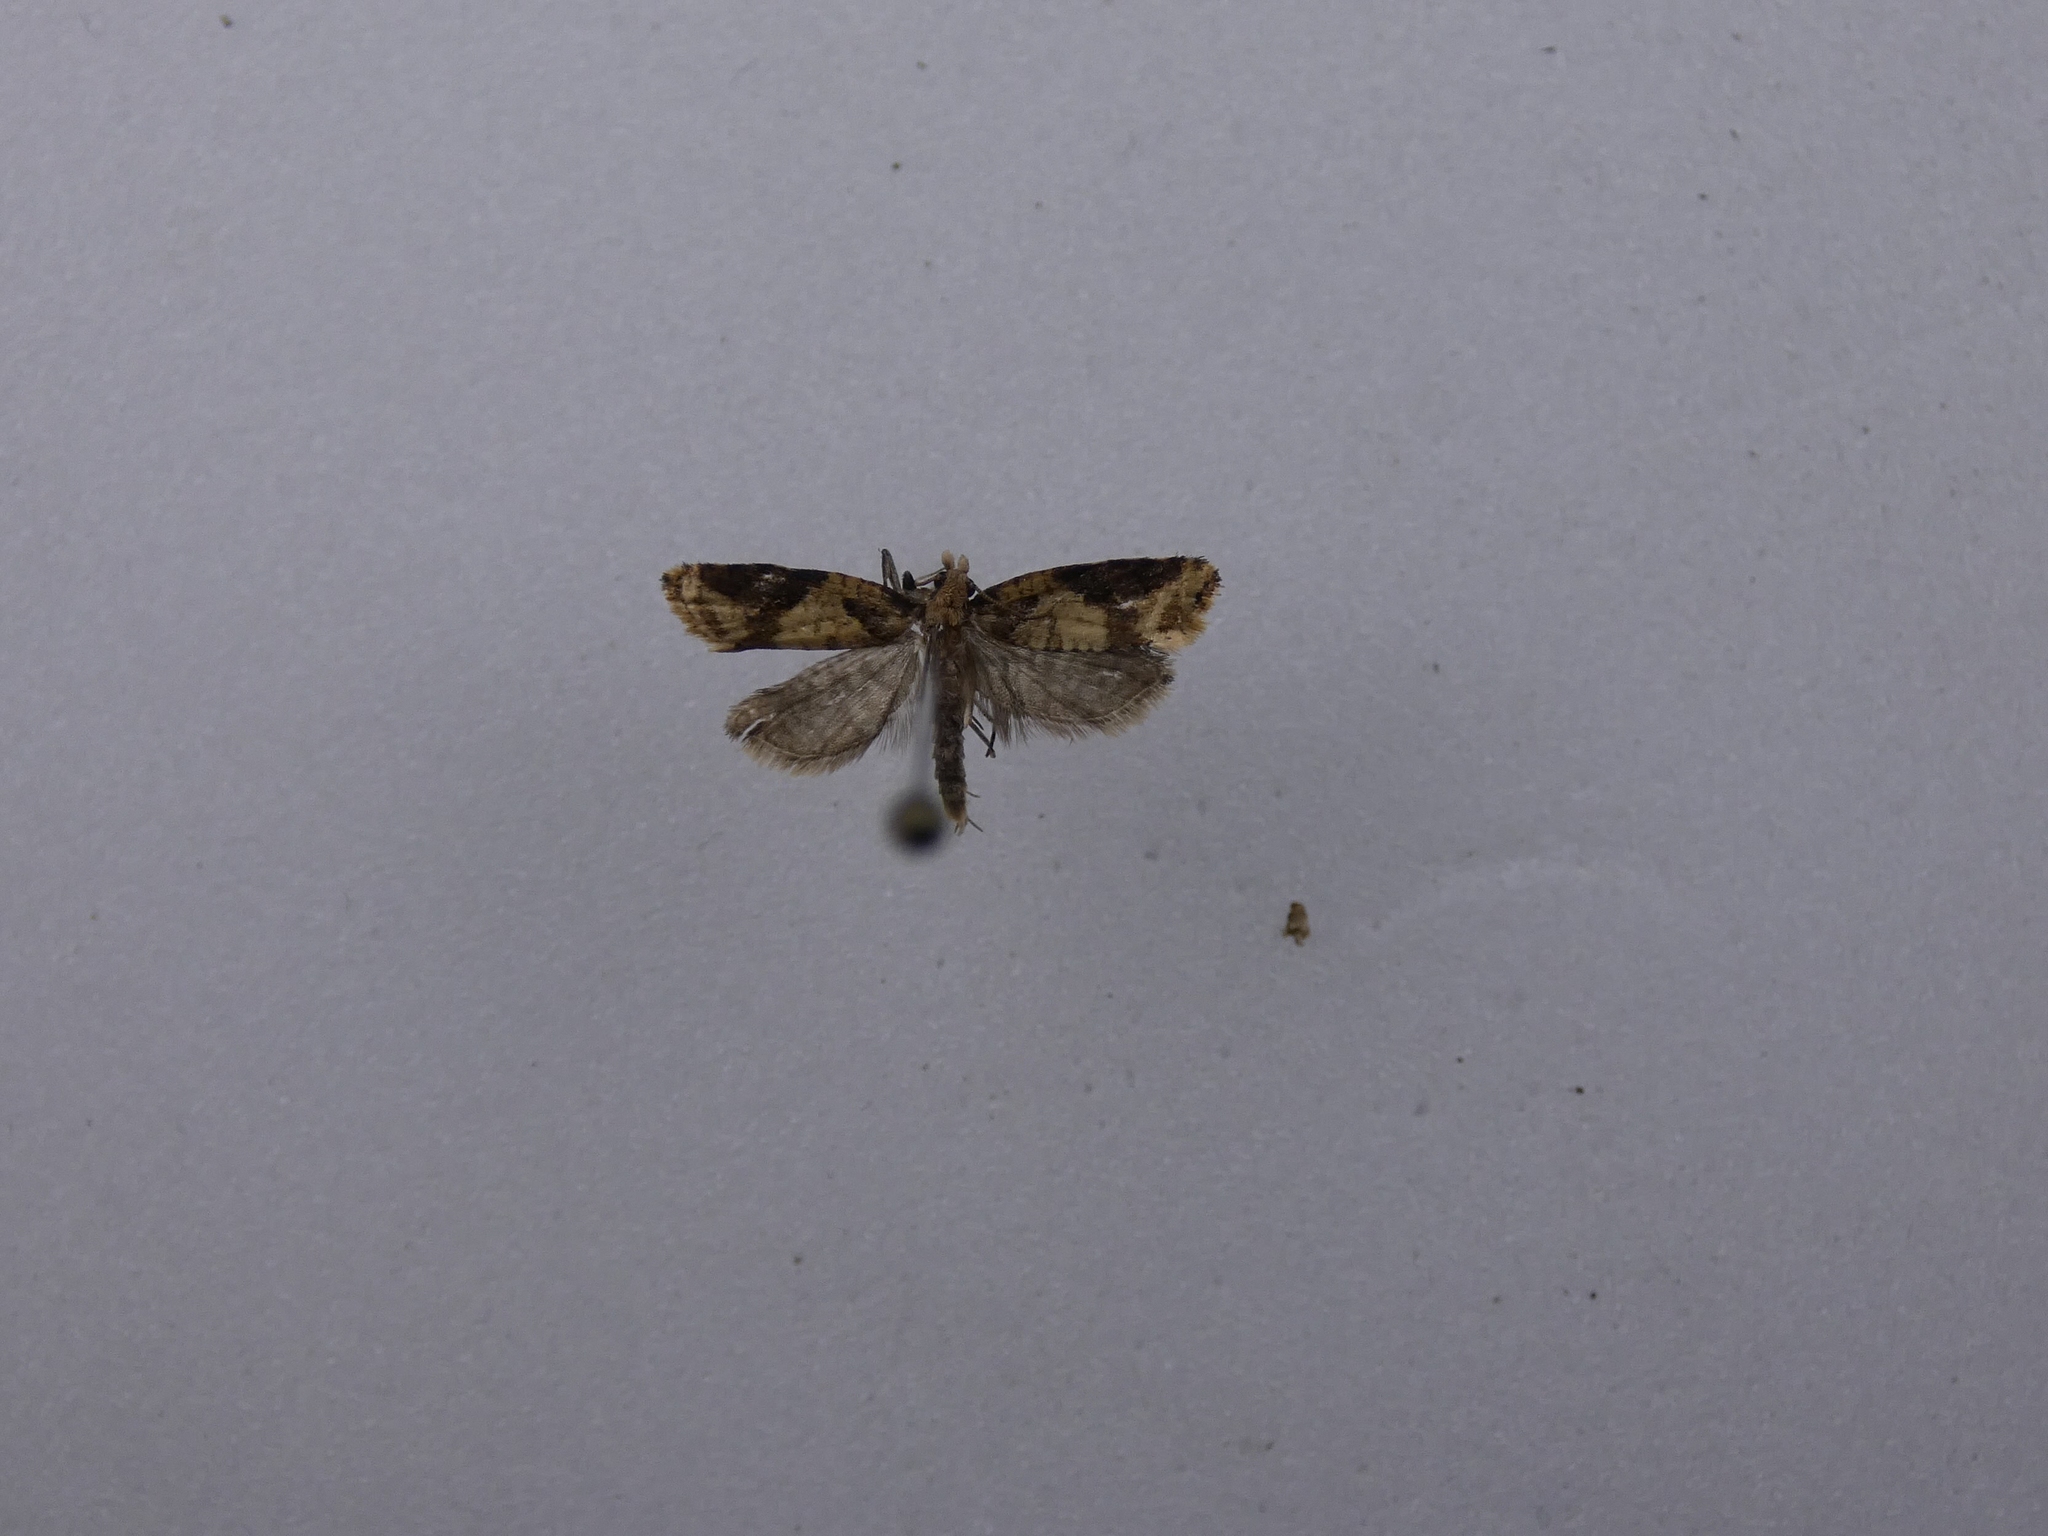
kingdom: Animalia
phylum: Arthropoda
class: Insecta
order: Lepidoptera
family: Tortricidae
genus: Capua
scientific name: Capua semiferana
